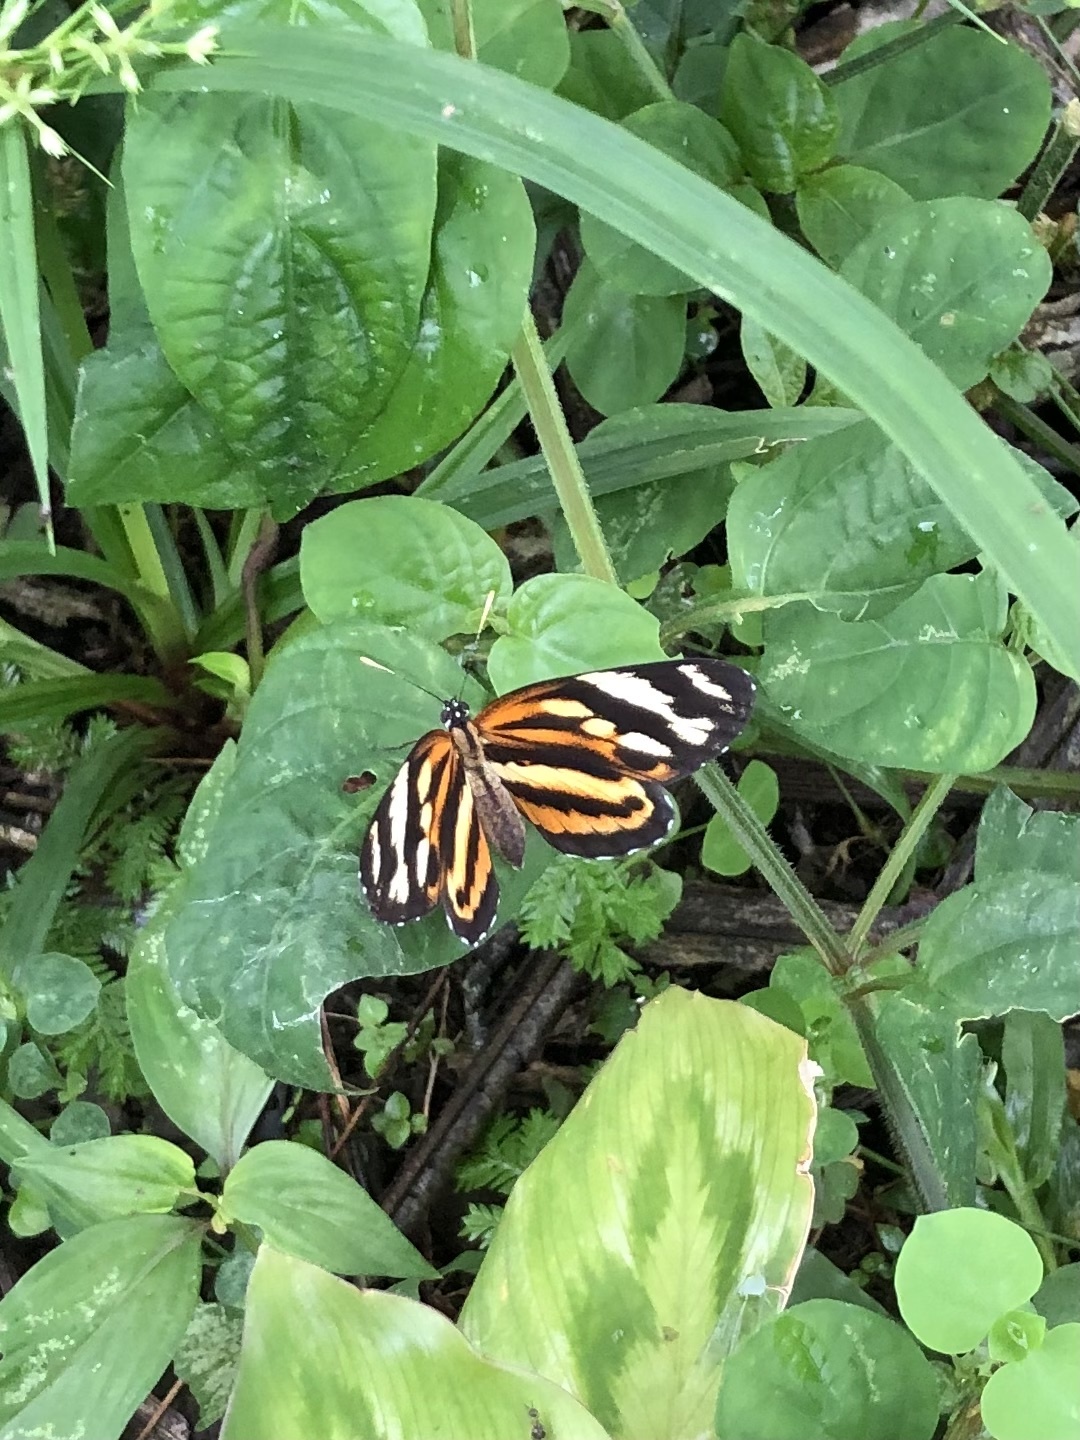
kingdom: Animalia
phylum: Arthropoda
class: Insecta
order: Lepidoptera
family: Nymphalidae
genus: Eresia
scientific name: Eresia eunice
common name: Tiger crescent
